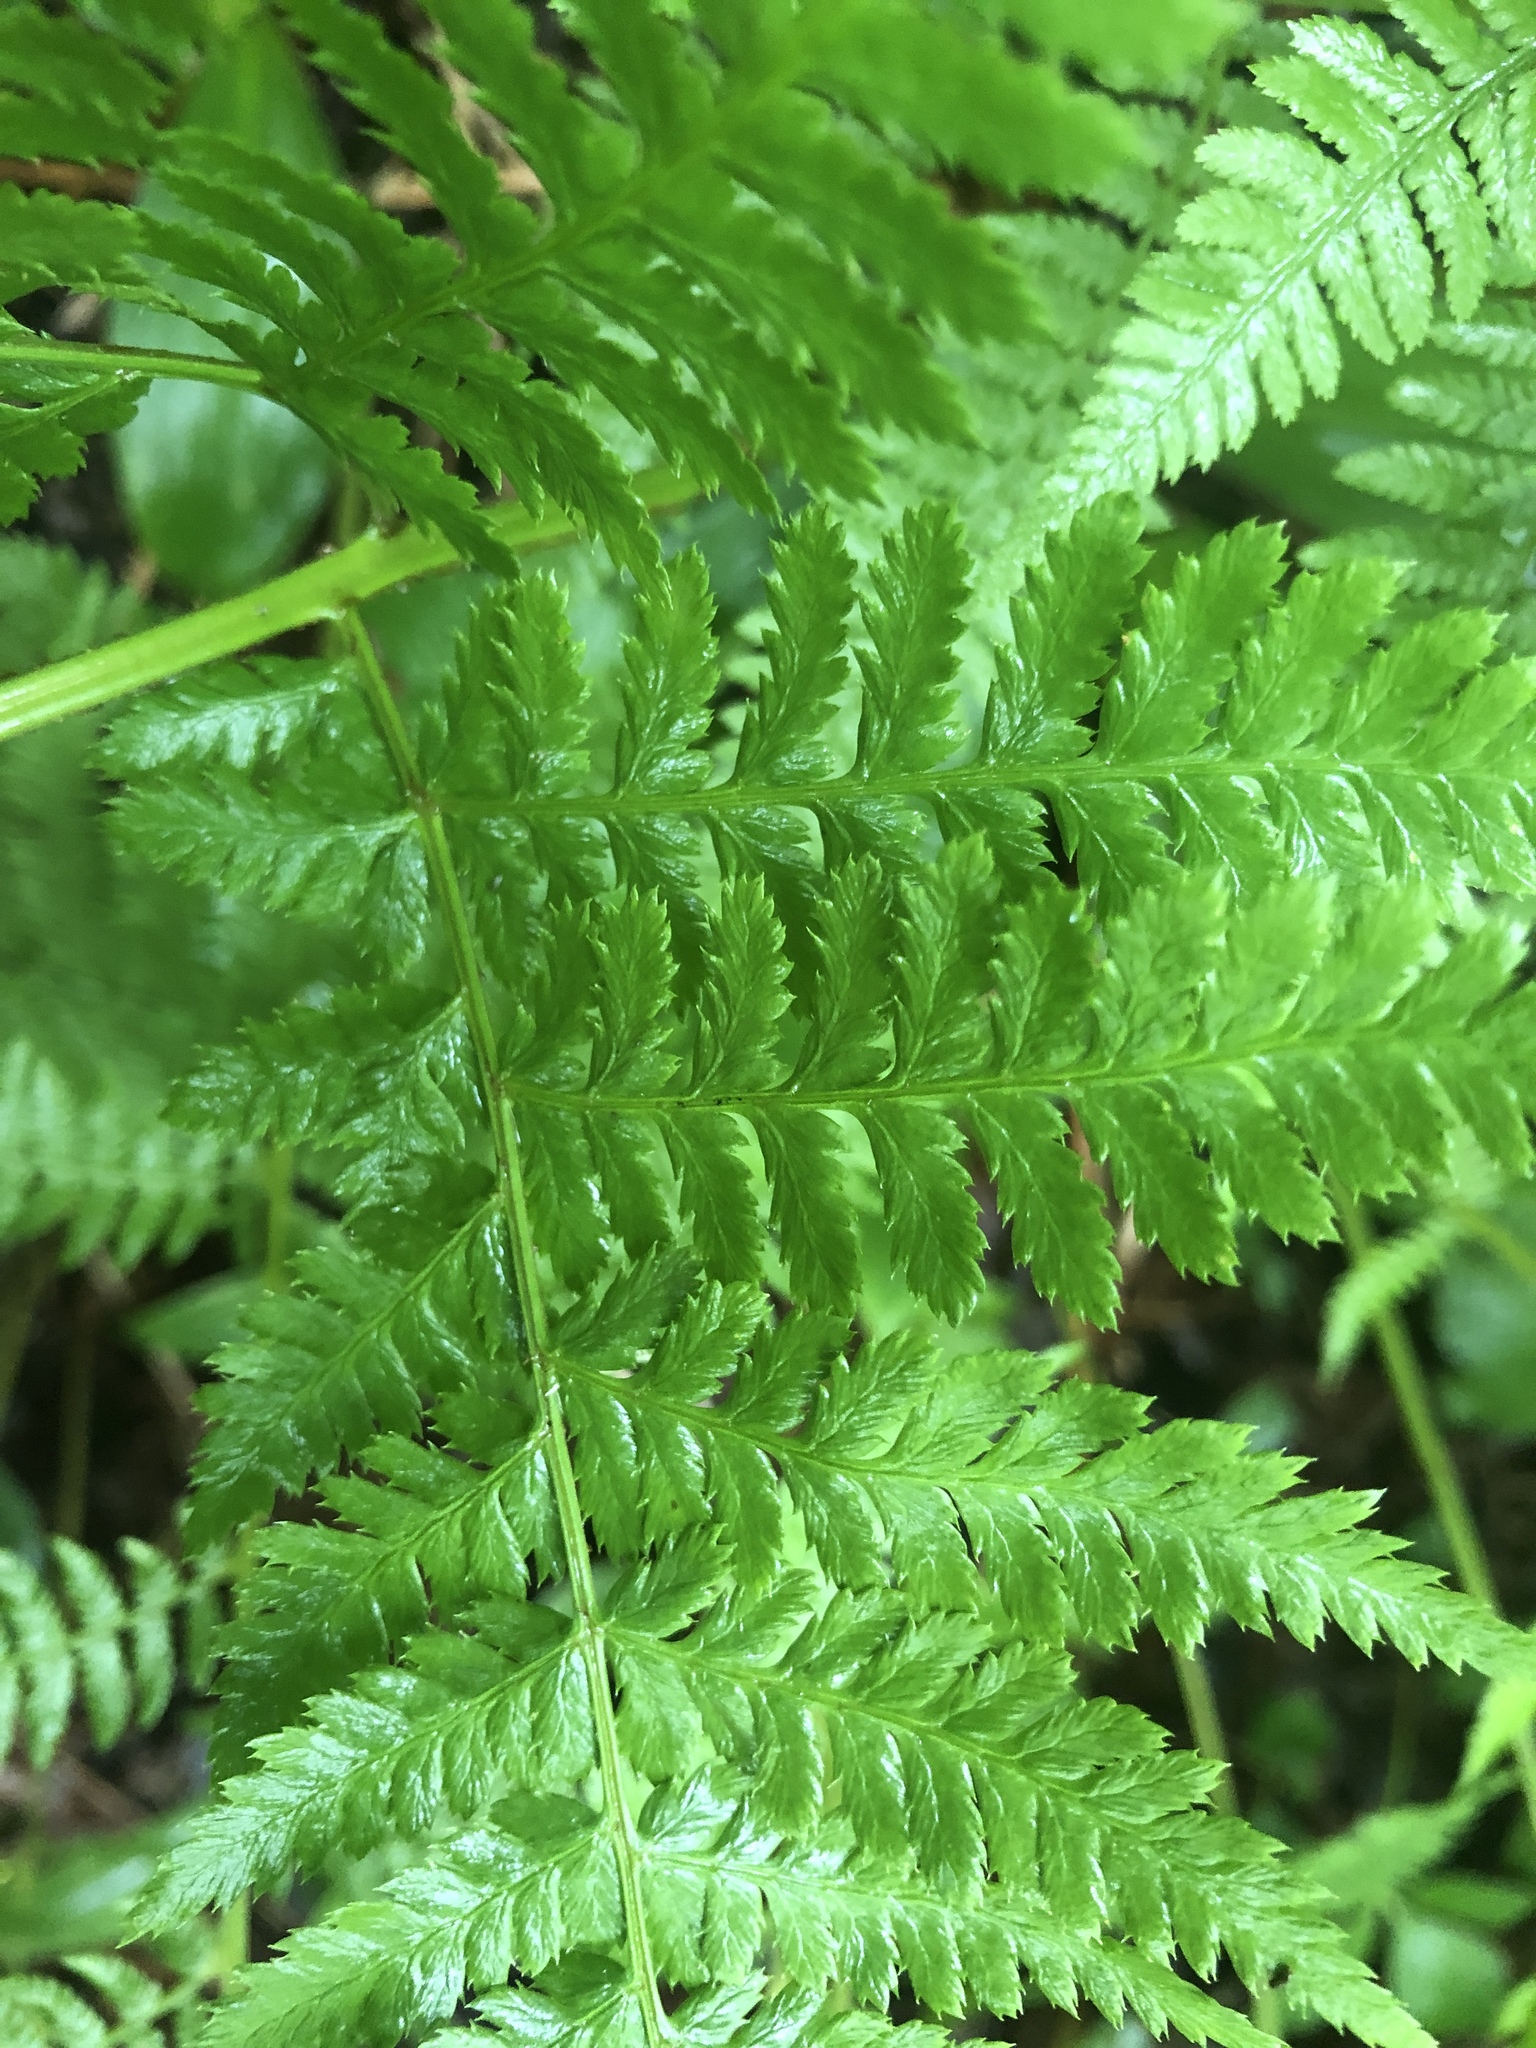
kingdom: Plantae
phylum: Tracheophyta
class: Polypodiopsida
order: Polypodiales
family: Dryopteridaceae
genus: Dryopteris
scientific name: Dryopteris intermedia
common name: Evergreen wood fern
